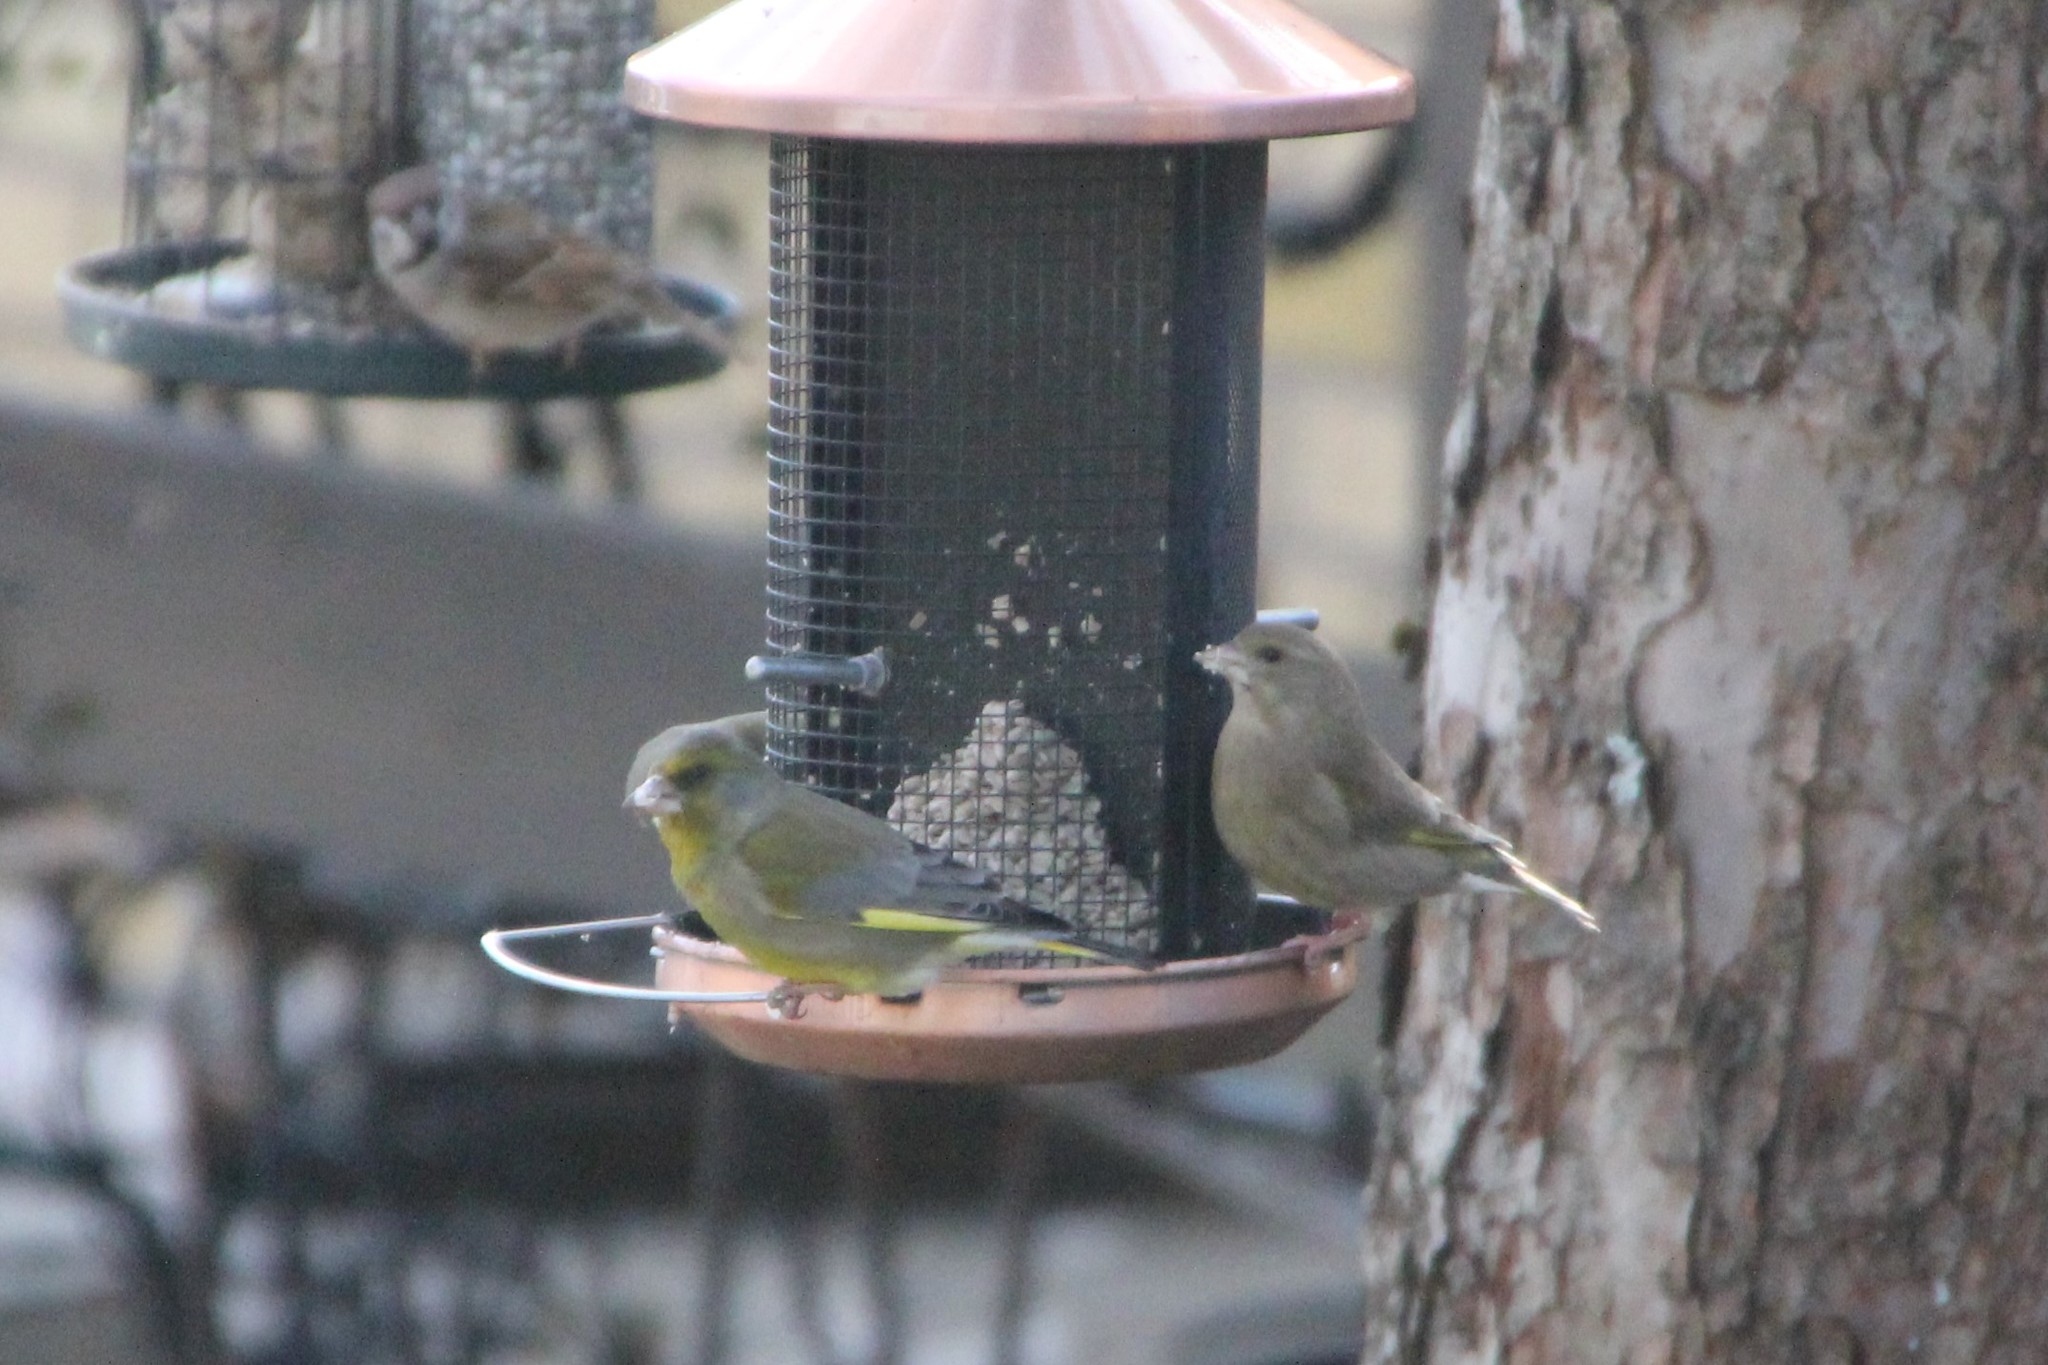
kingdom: Plantae
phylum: Tracheophyta
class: Liliopsida
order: Poales
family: Poaceae
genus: Chloris
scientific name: Chloris chloris
